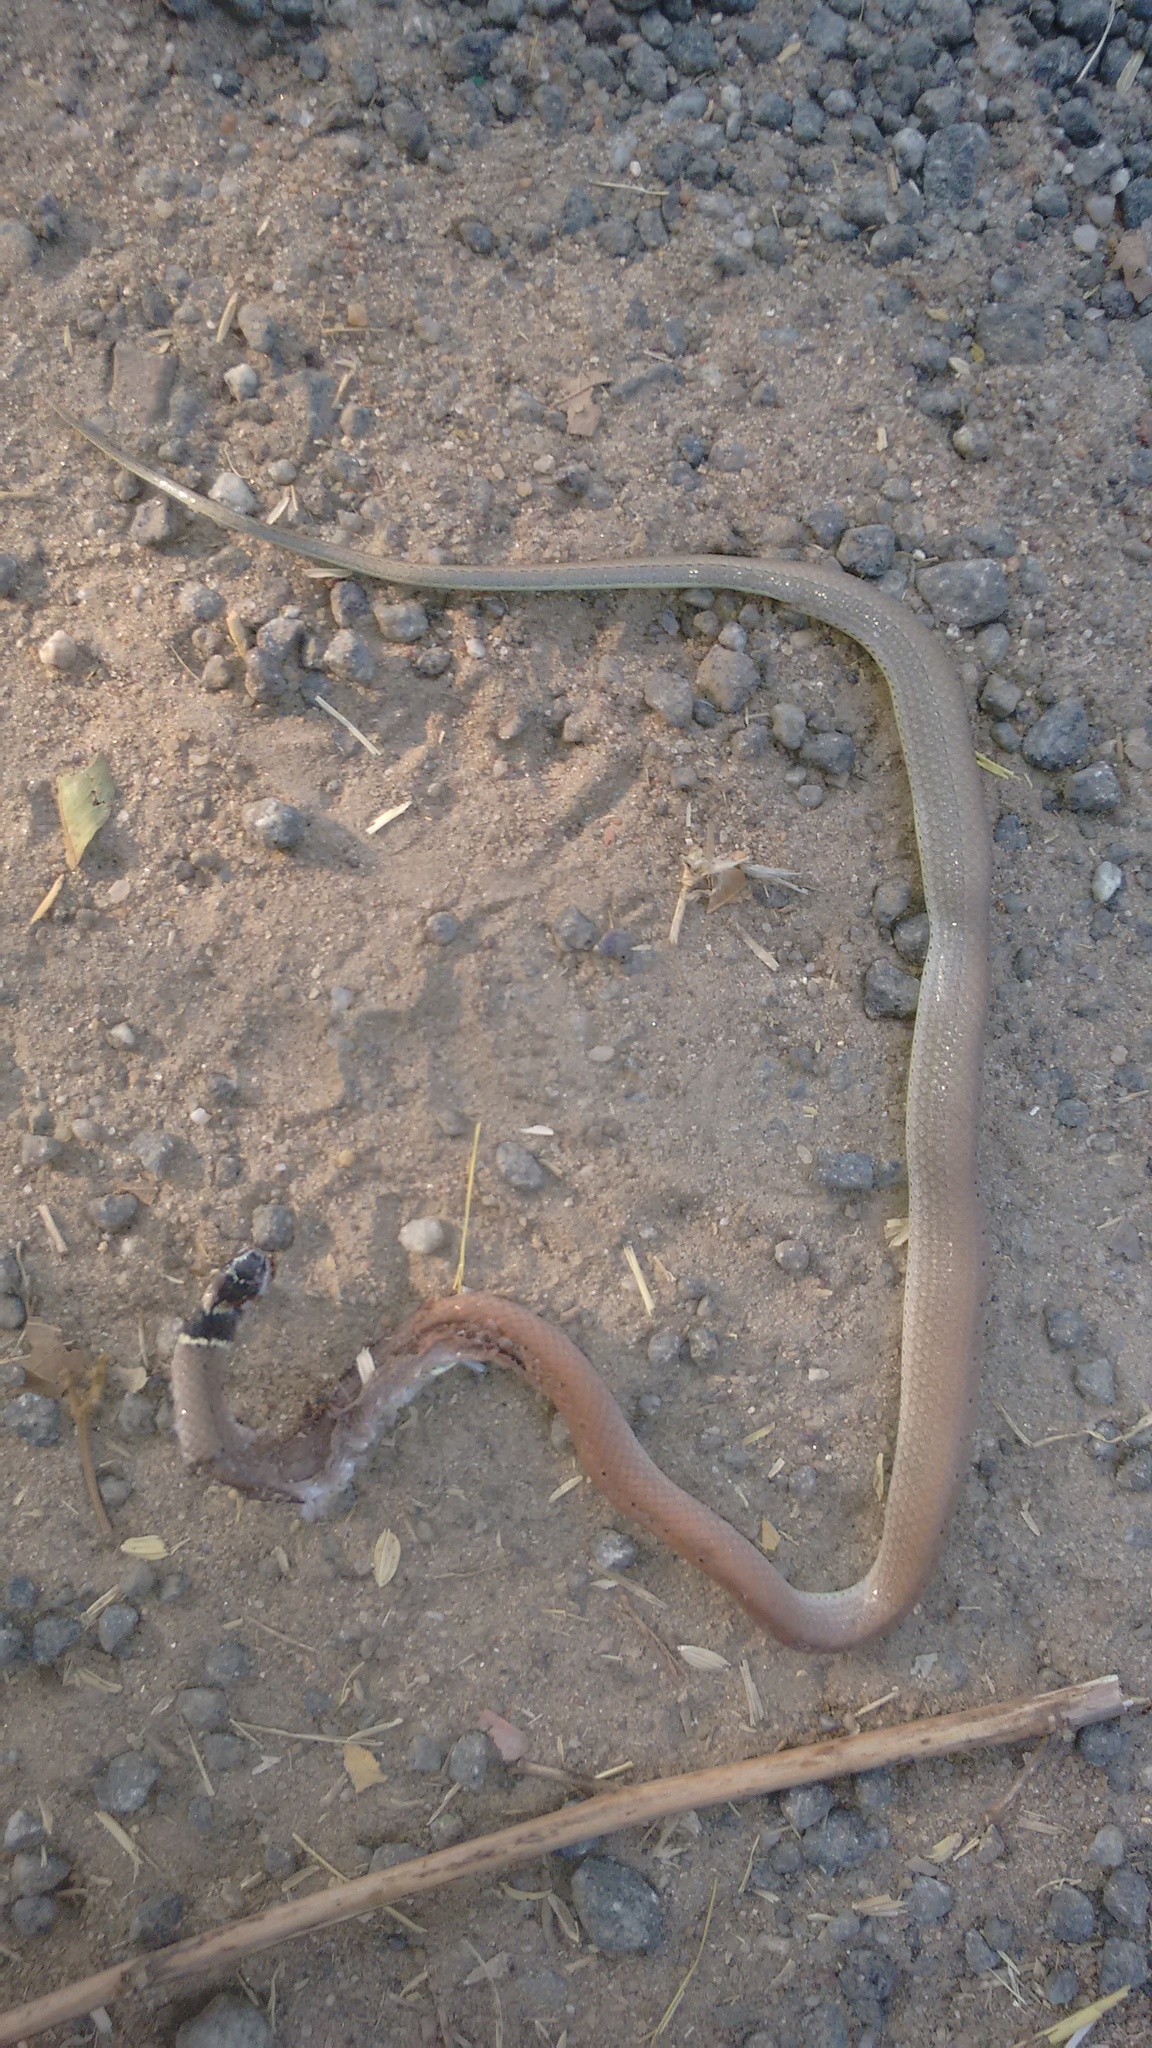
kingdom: Animalia
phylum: Chordata
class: Squamata
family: Colubridae
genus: Sibynophis
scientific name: Sibynophis subpunctatus
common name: Black-headed snake
